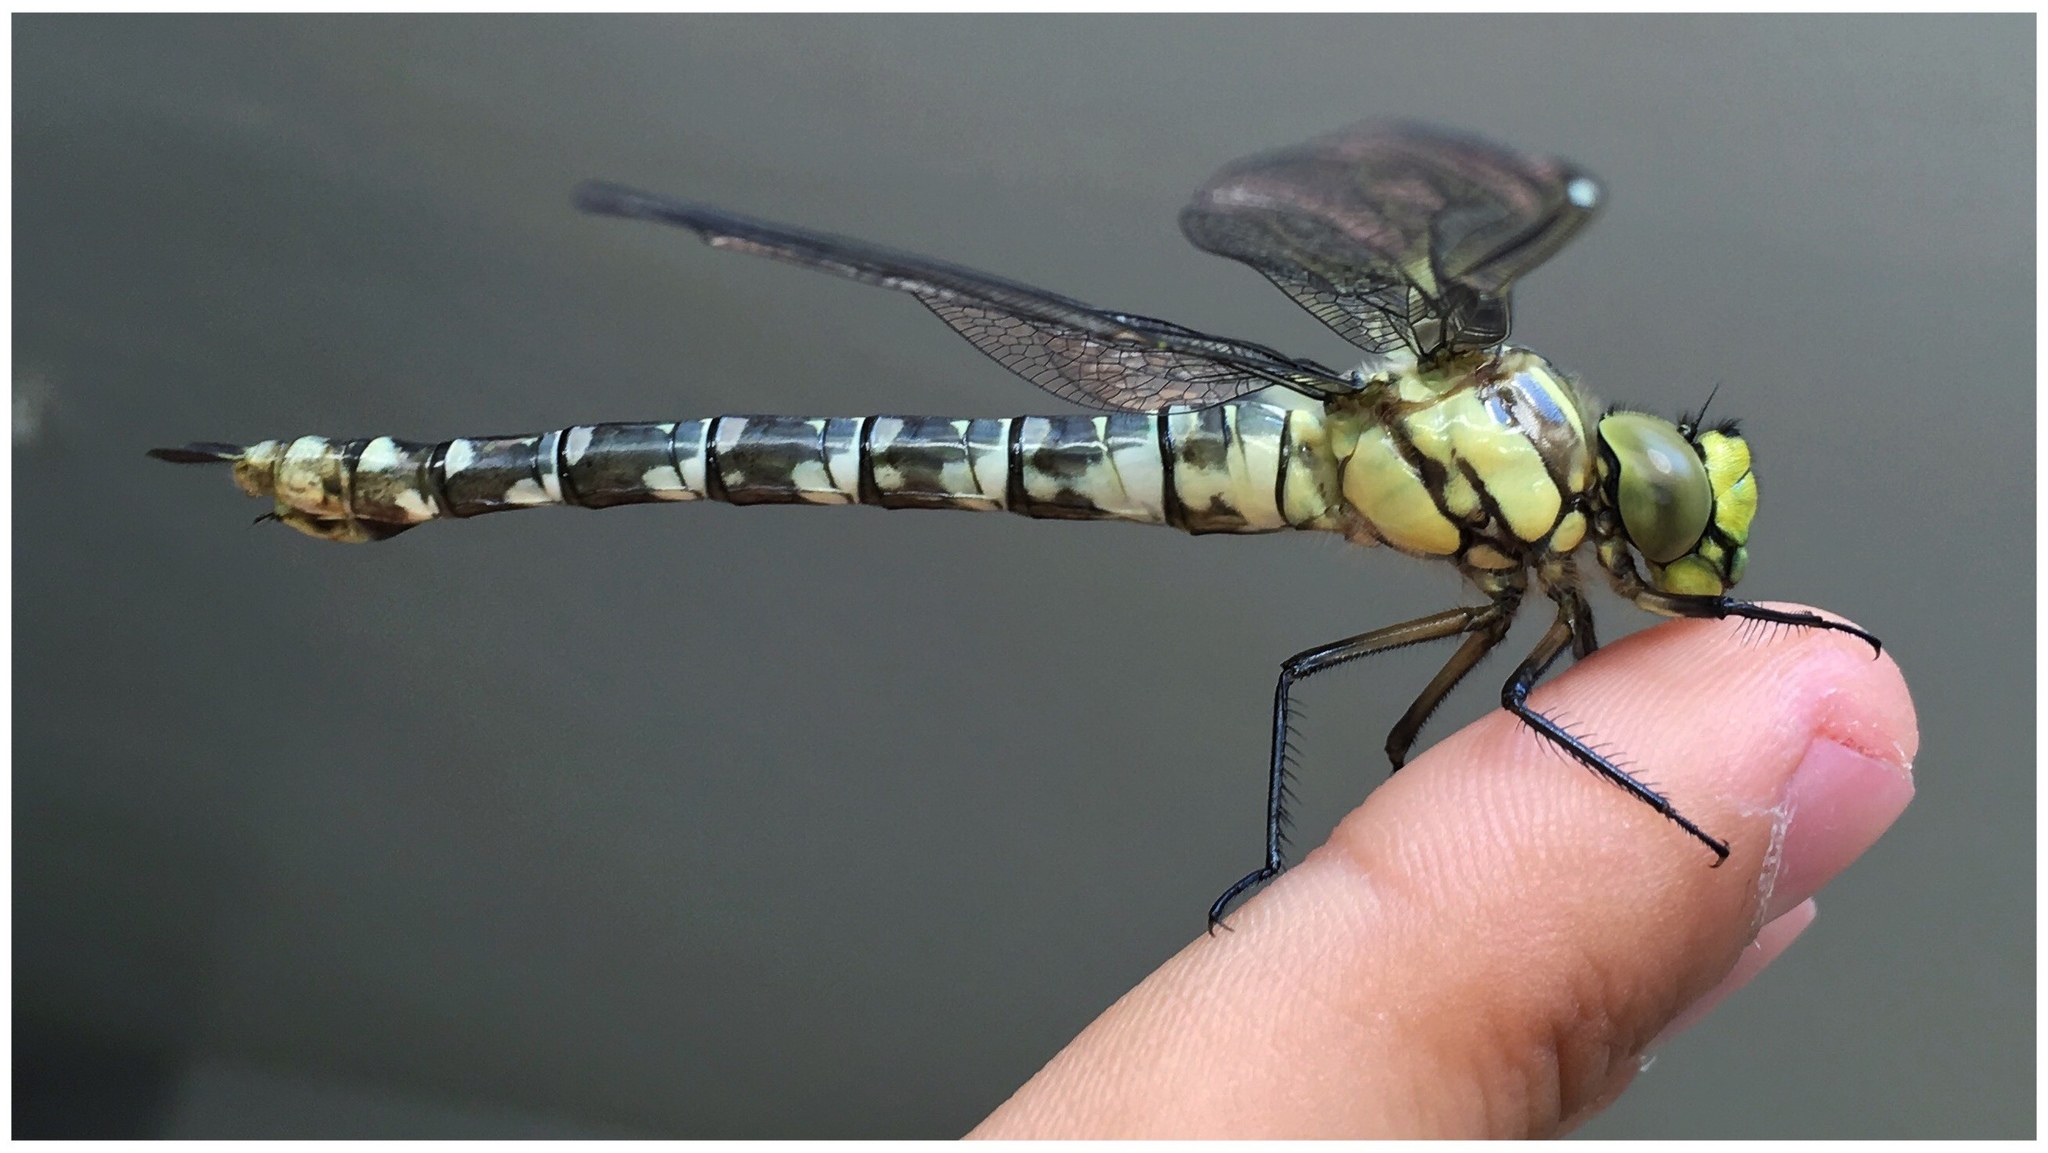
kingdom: Animalia
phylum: Arthropoda
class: Insecta
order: Odonata
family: Aeshnidae
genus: Aeshna
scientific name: Aeshna cyanea
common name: Southern hawker
